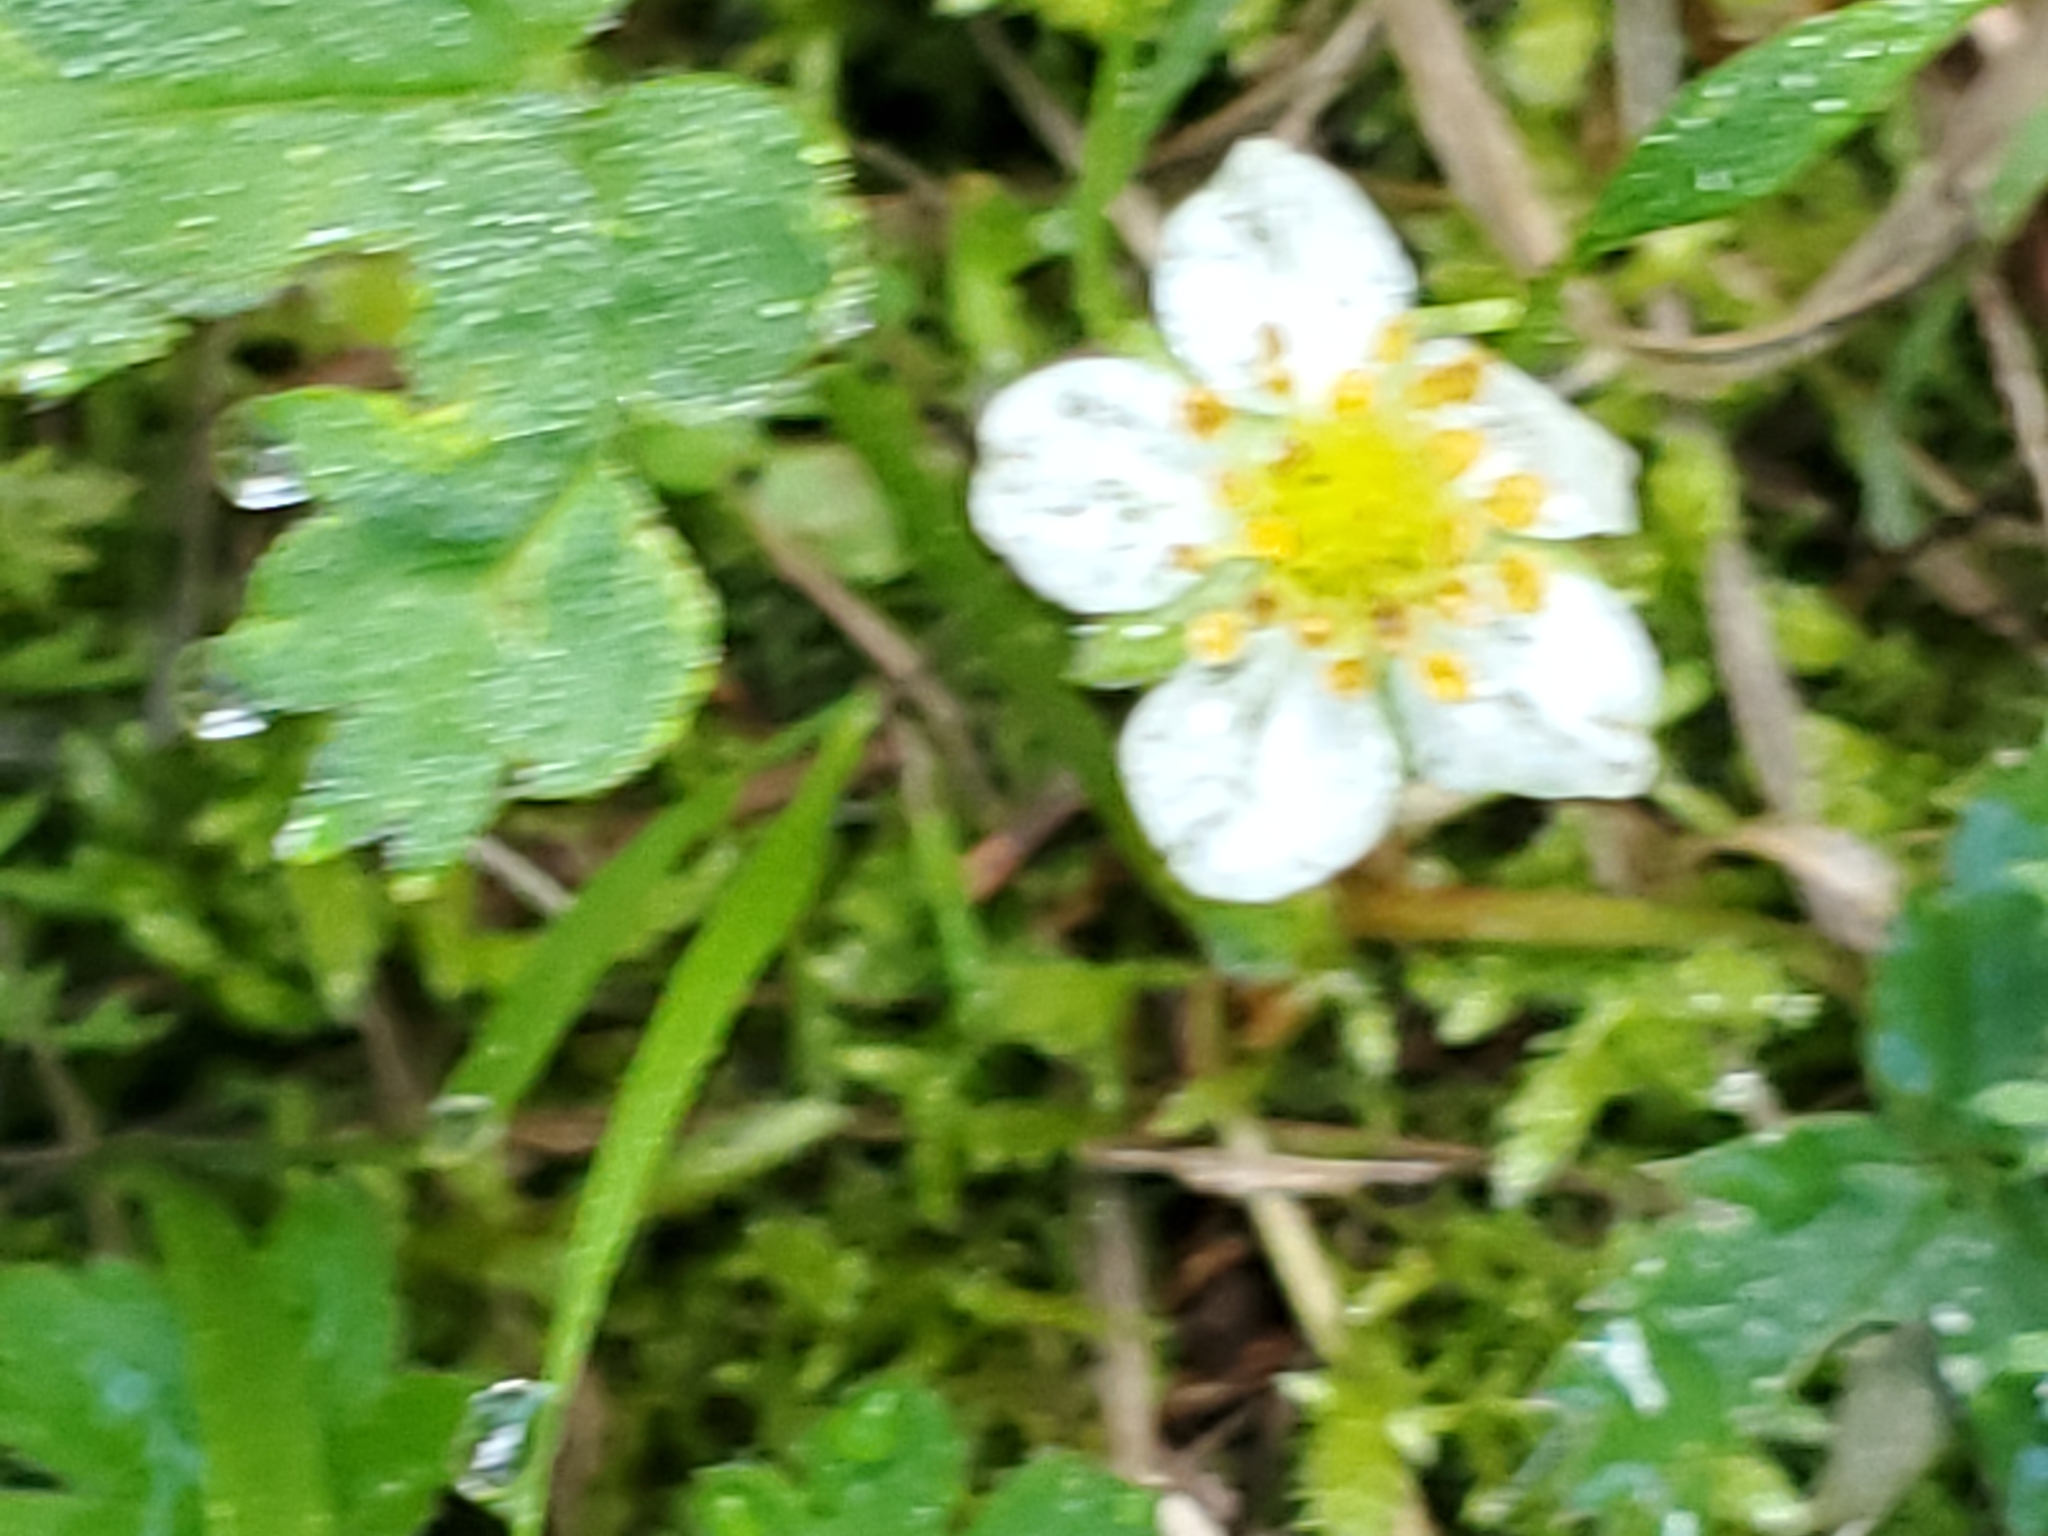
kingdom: Plantae
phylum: Tracheophyta
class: Magnoliopsida
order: Rosales
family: Rosaceae
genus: Fragaria
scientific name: Fragaria virginiana
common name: Thickleaved wild strawberry
